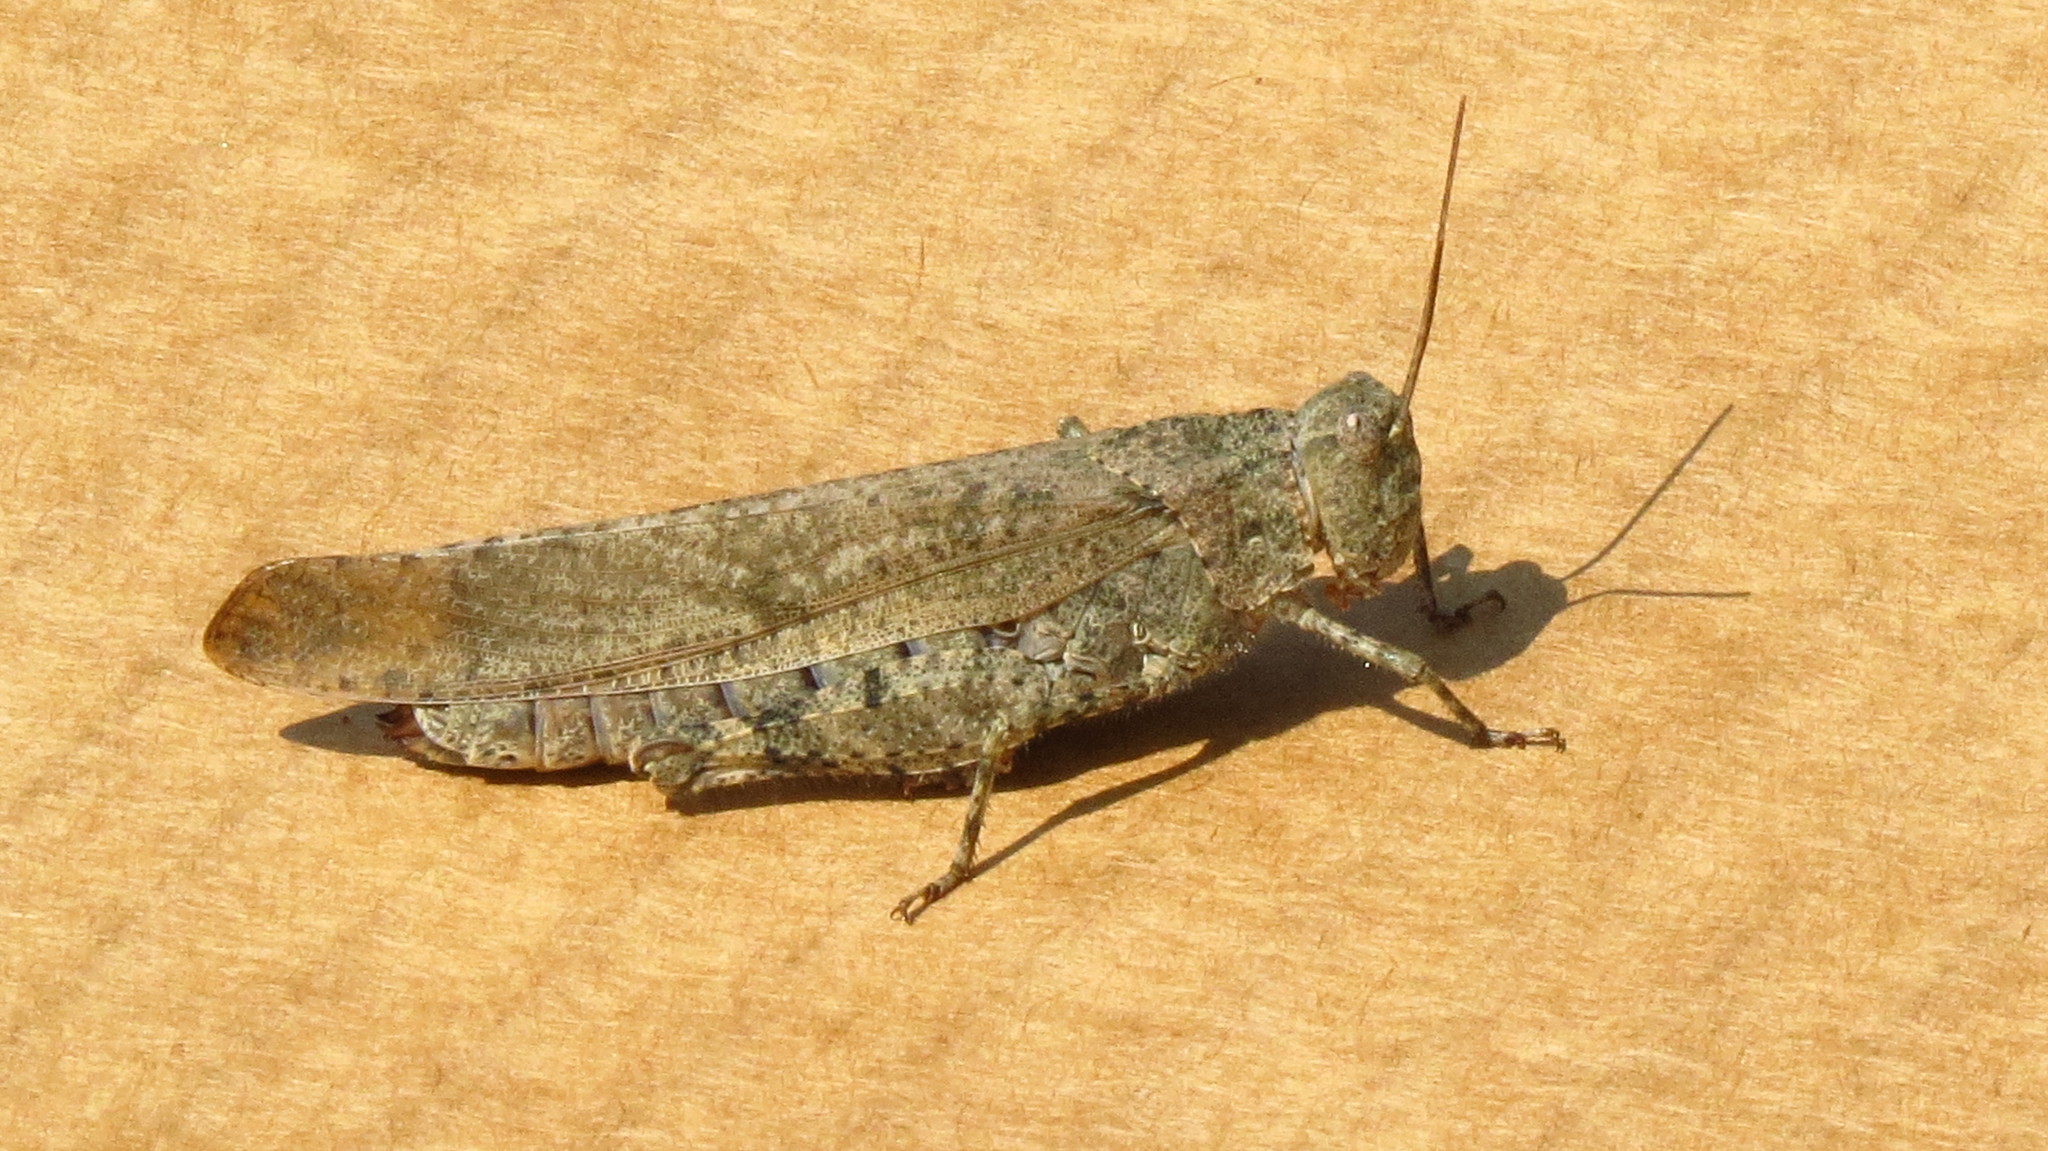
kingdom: Animalia
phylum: Arthropoda
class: Insecta
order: Orthoptera
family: Acrididae
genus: Dissosteira
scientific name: Dissosteira carolina
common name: Carolina grasshopper
